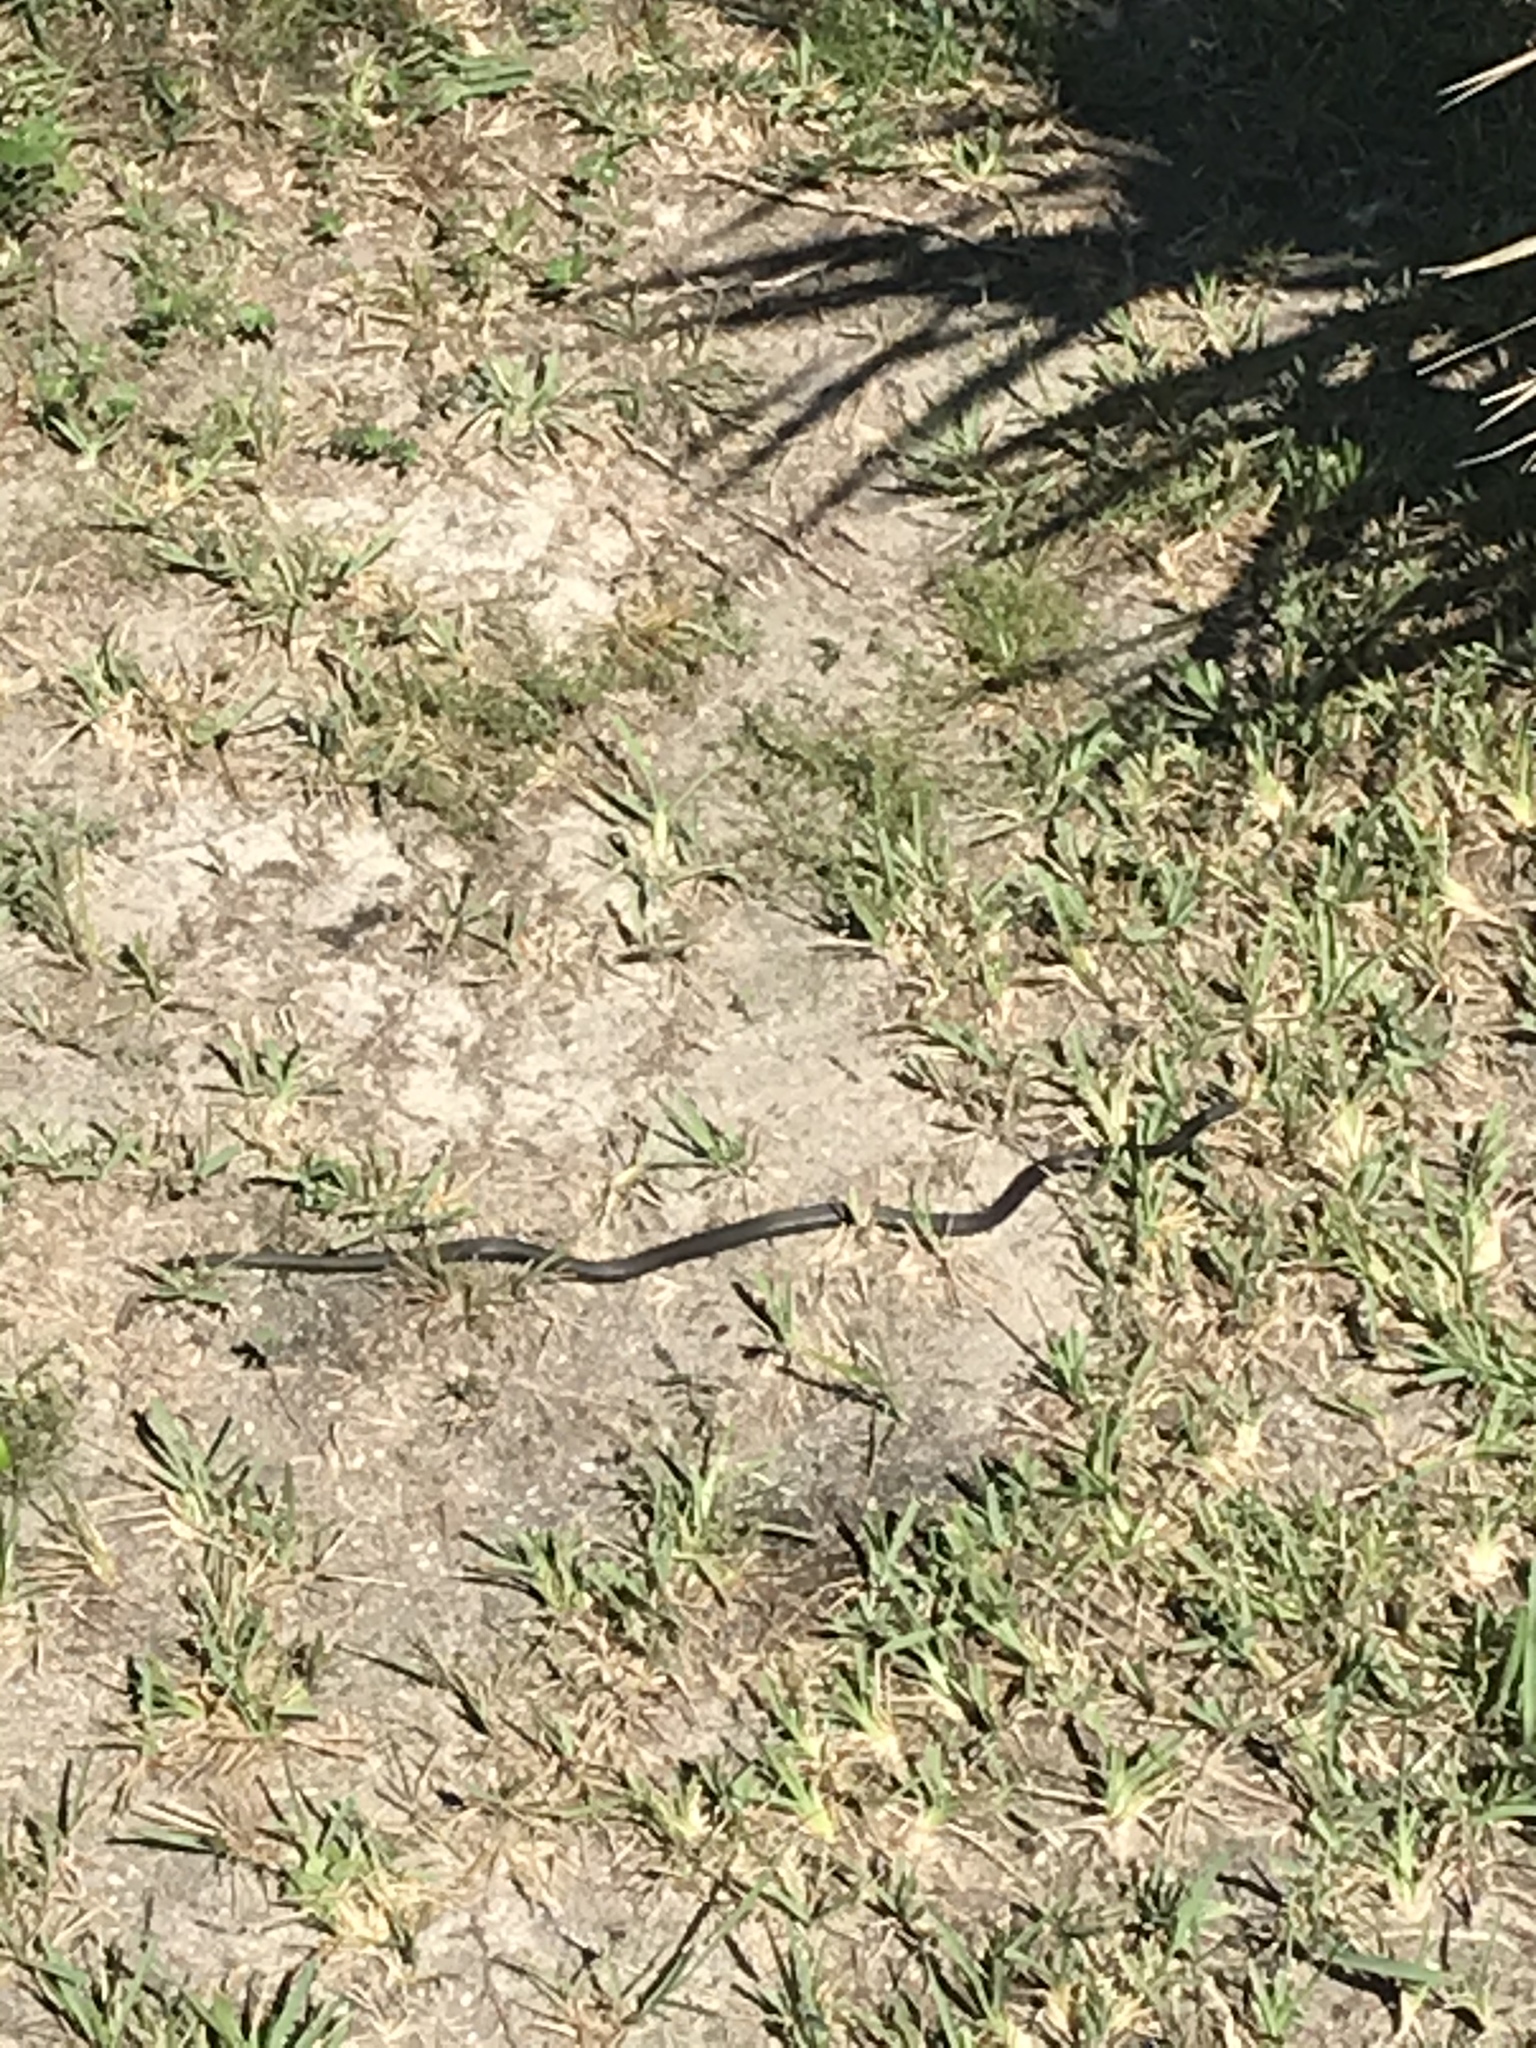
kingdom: Animalia
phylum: Chordata
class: Squamata
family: Colubridae
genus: Coluber
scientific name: Coluber constrictor
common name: Eastern racer
